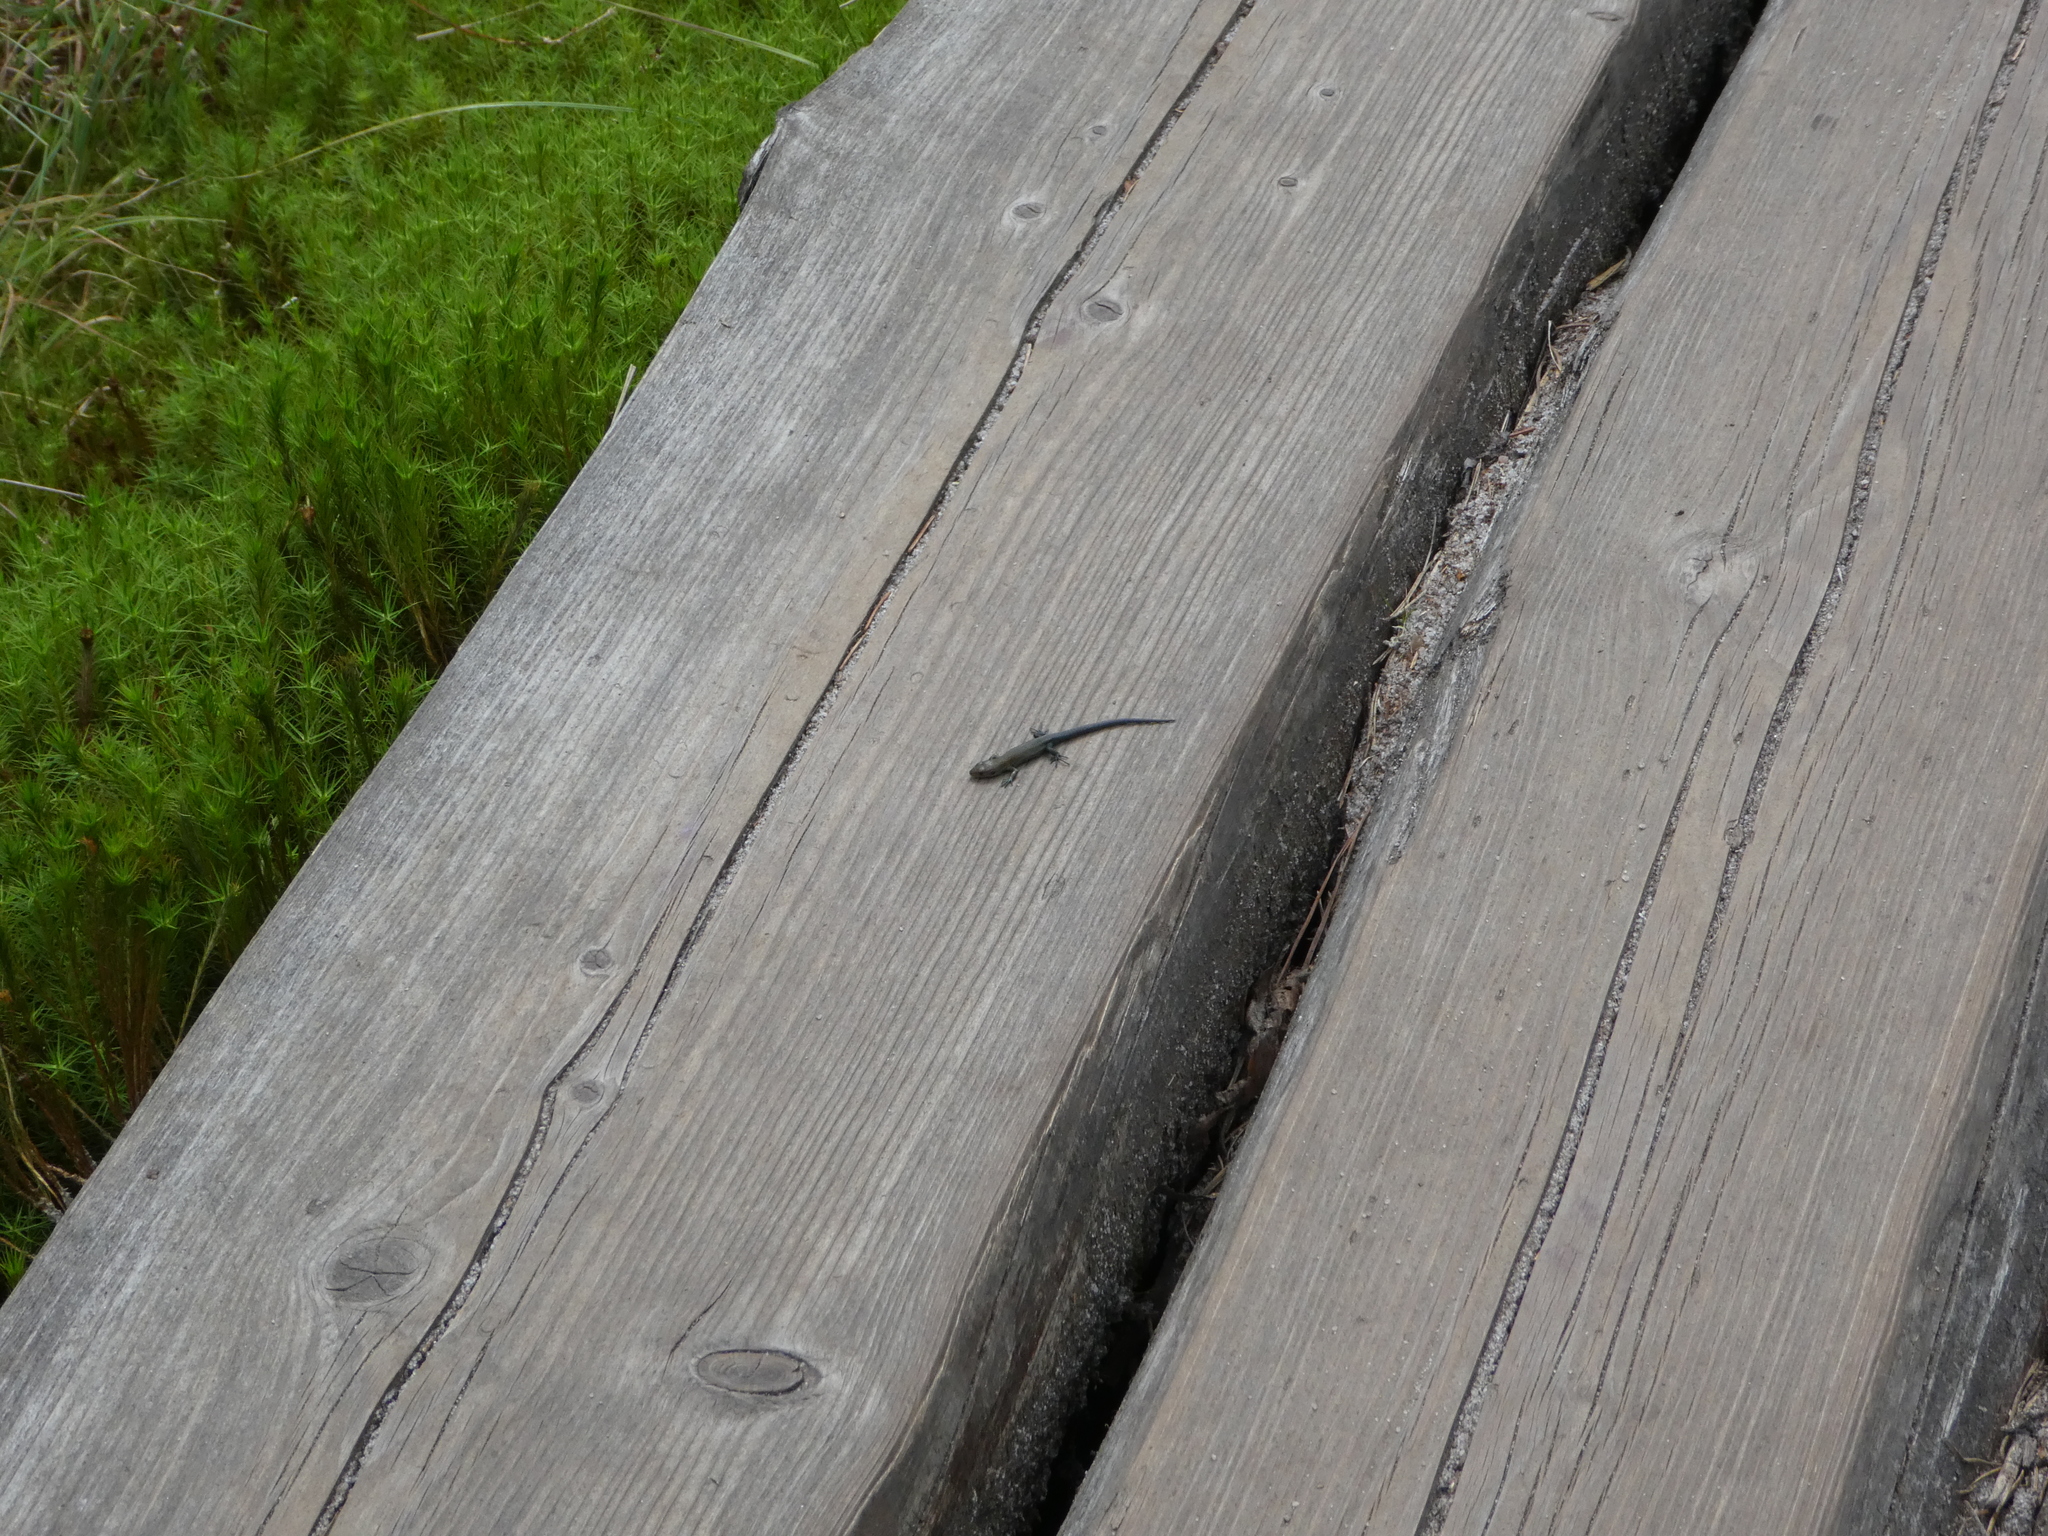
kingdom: Animalia
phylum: Chordata
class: Squamata
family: Lacertidae
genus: Zootoca
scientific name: Zootoca vivipara
